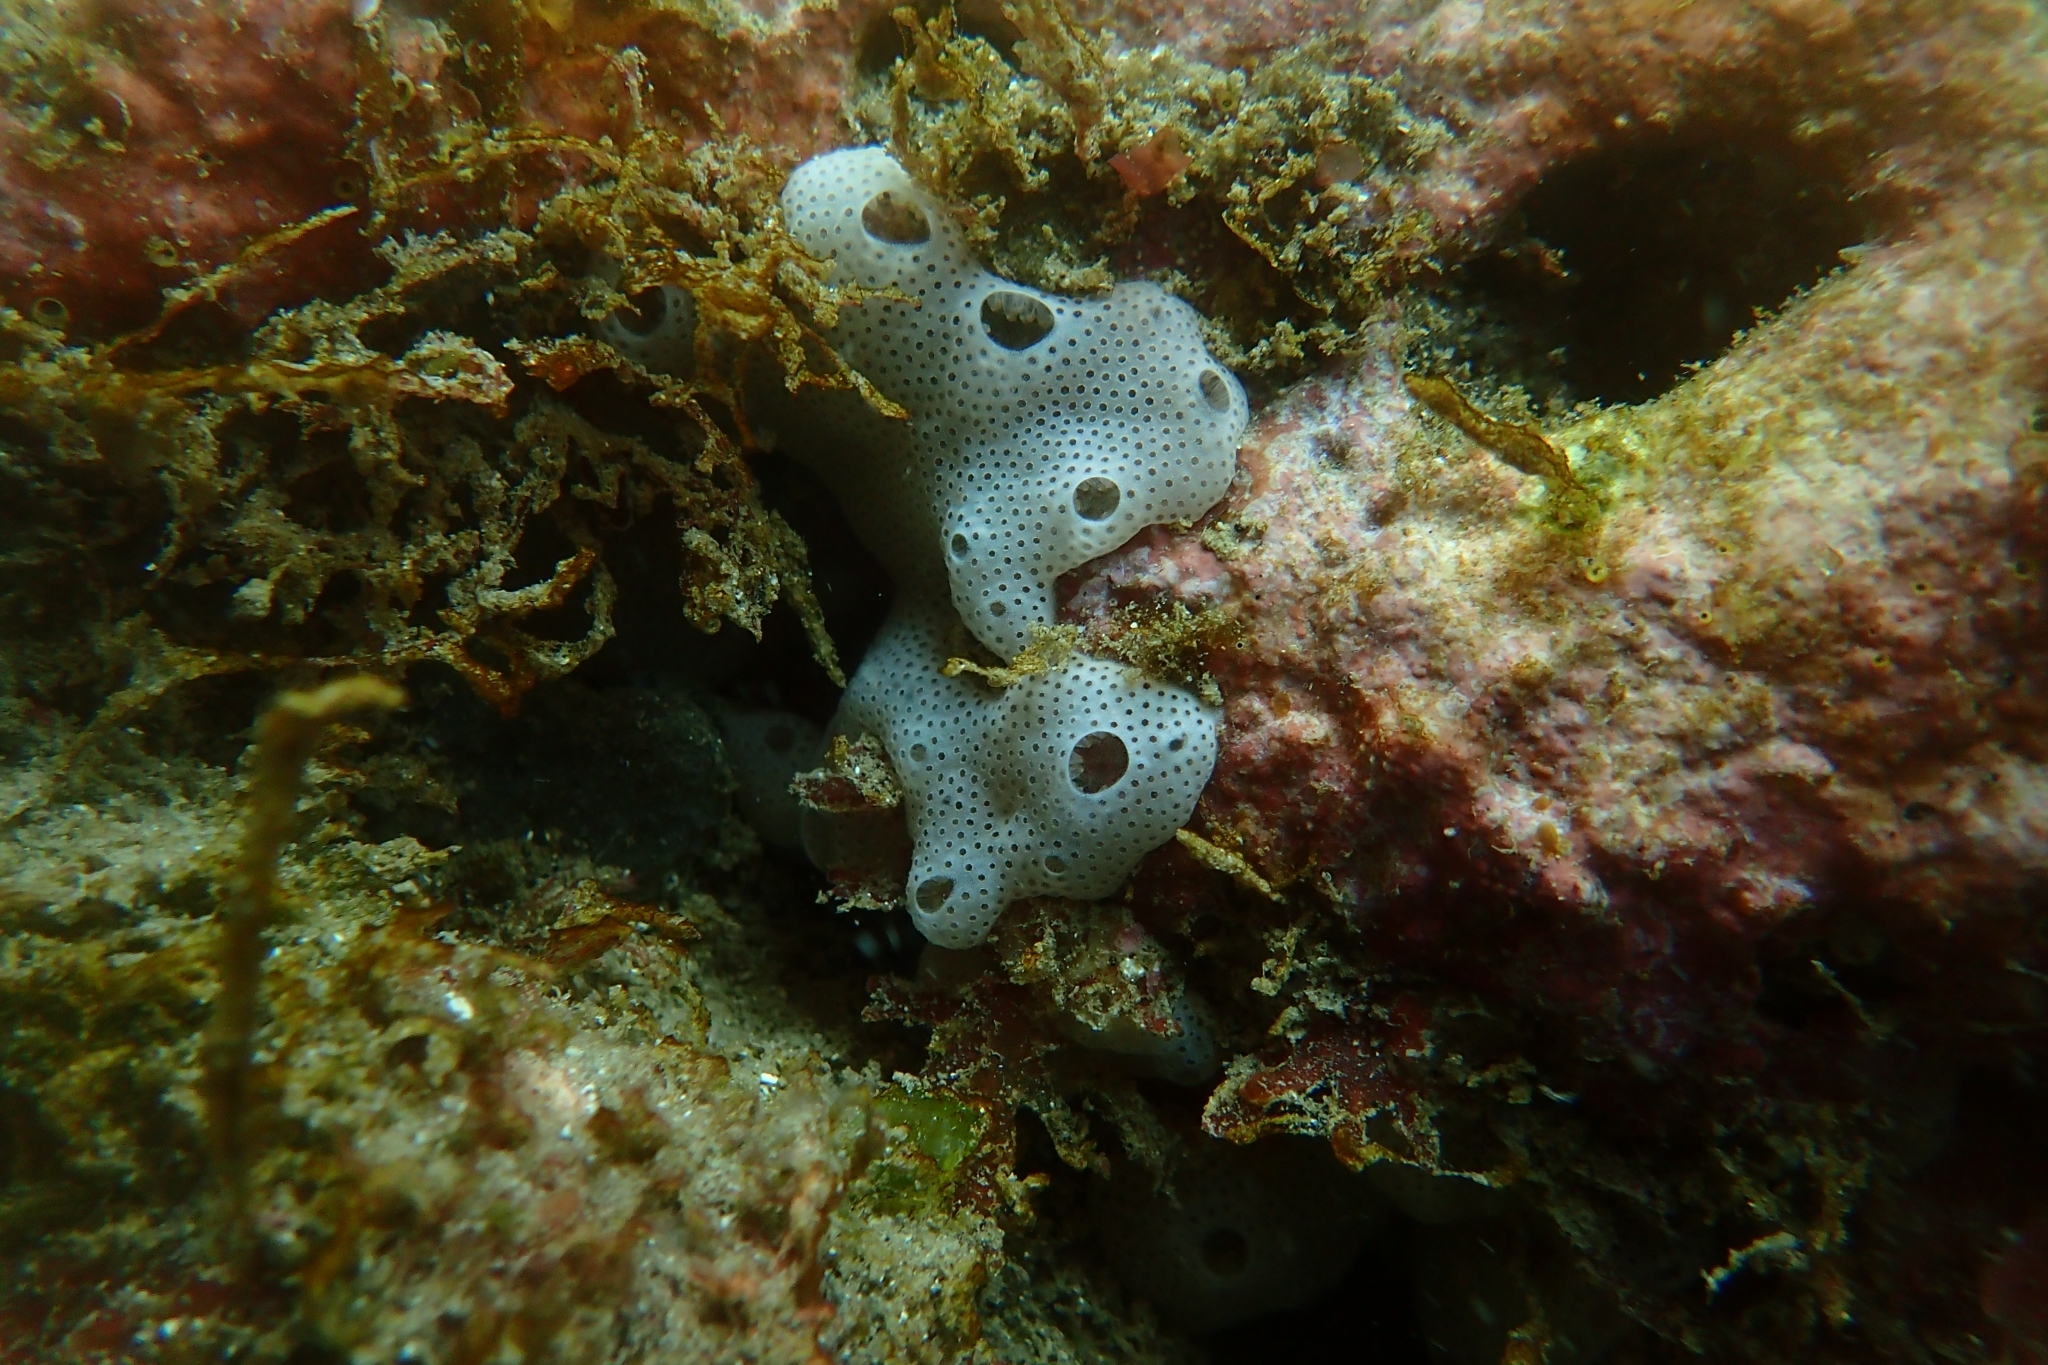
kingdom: Animalia
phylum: Chordata
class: Ascidiacea
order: Aplousobranchia
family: Didemnidae
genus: Lissoclinum
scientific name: Lissoclinum notti
